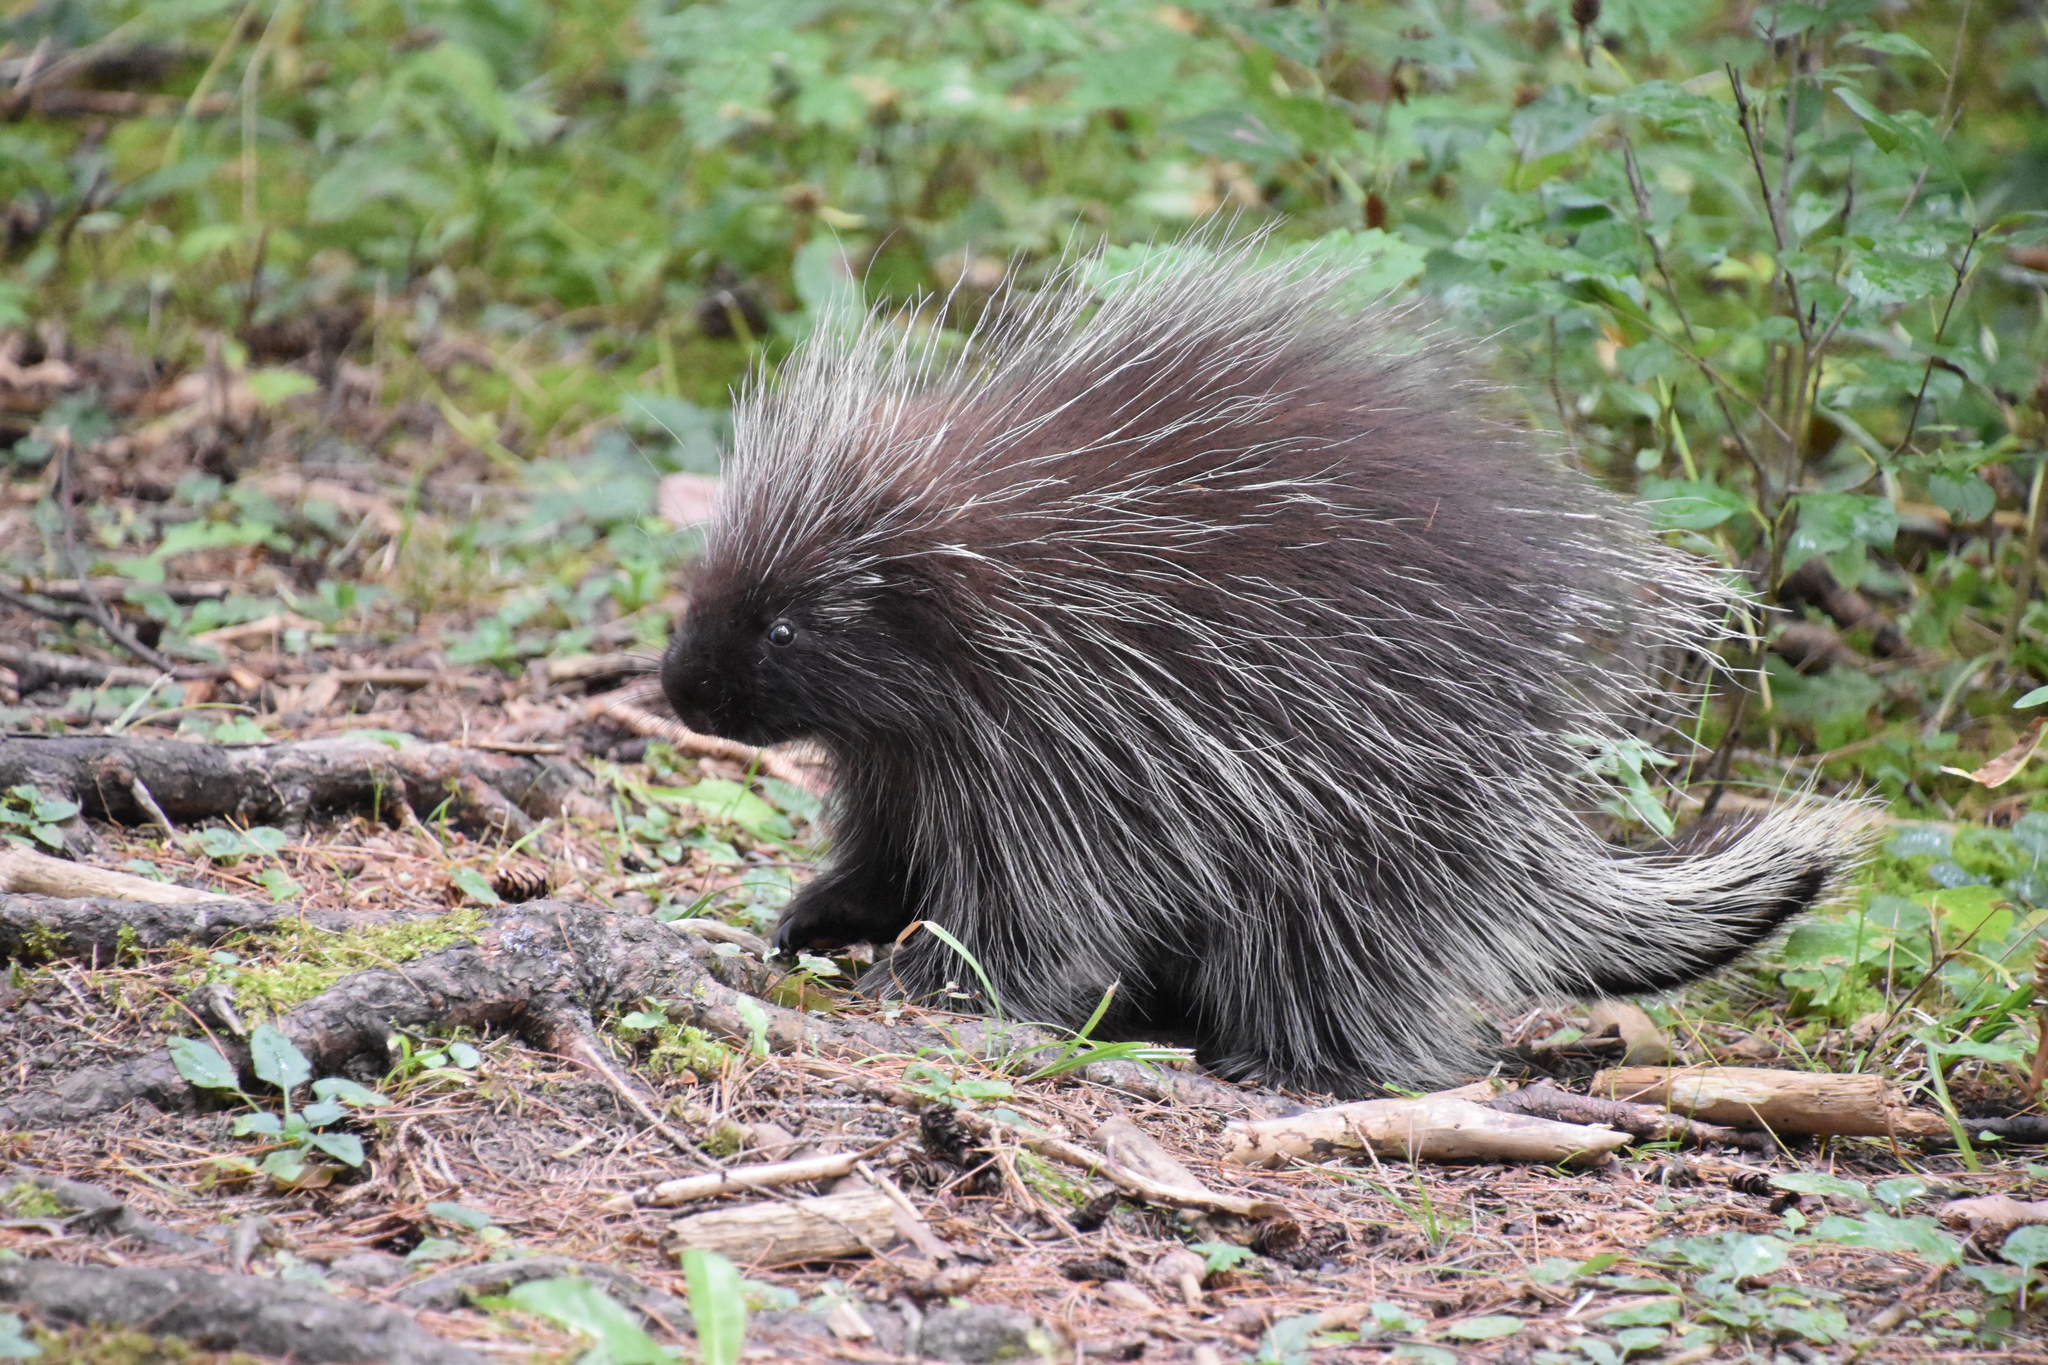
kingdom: Animalia
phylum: Chordata
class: Mammalia
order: Rodentia
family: Erethizontidae
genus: Erethizon
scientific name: Erethizon dorsatus
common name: North american porcupine
